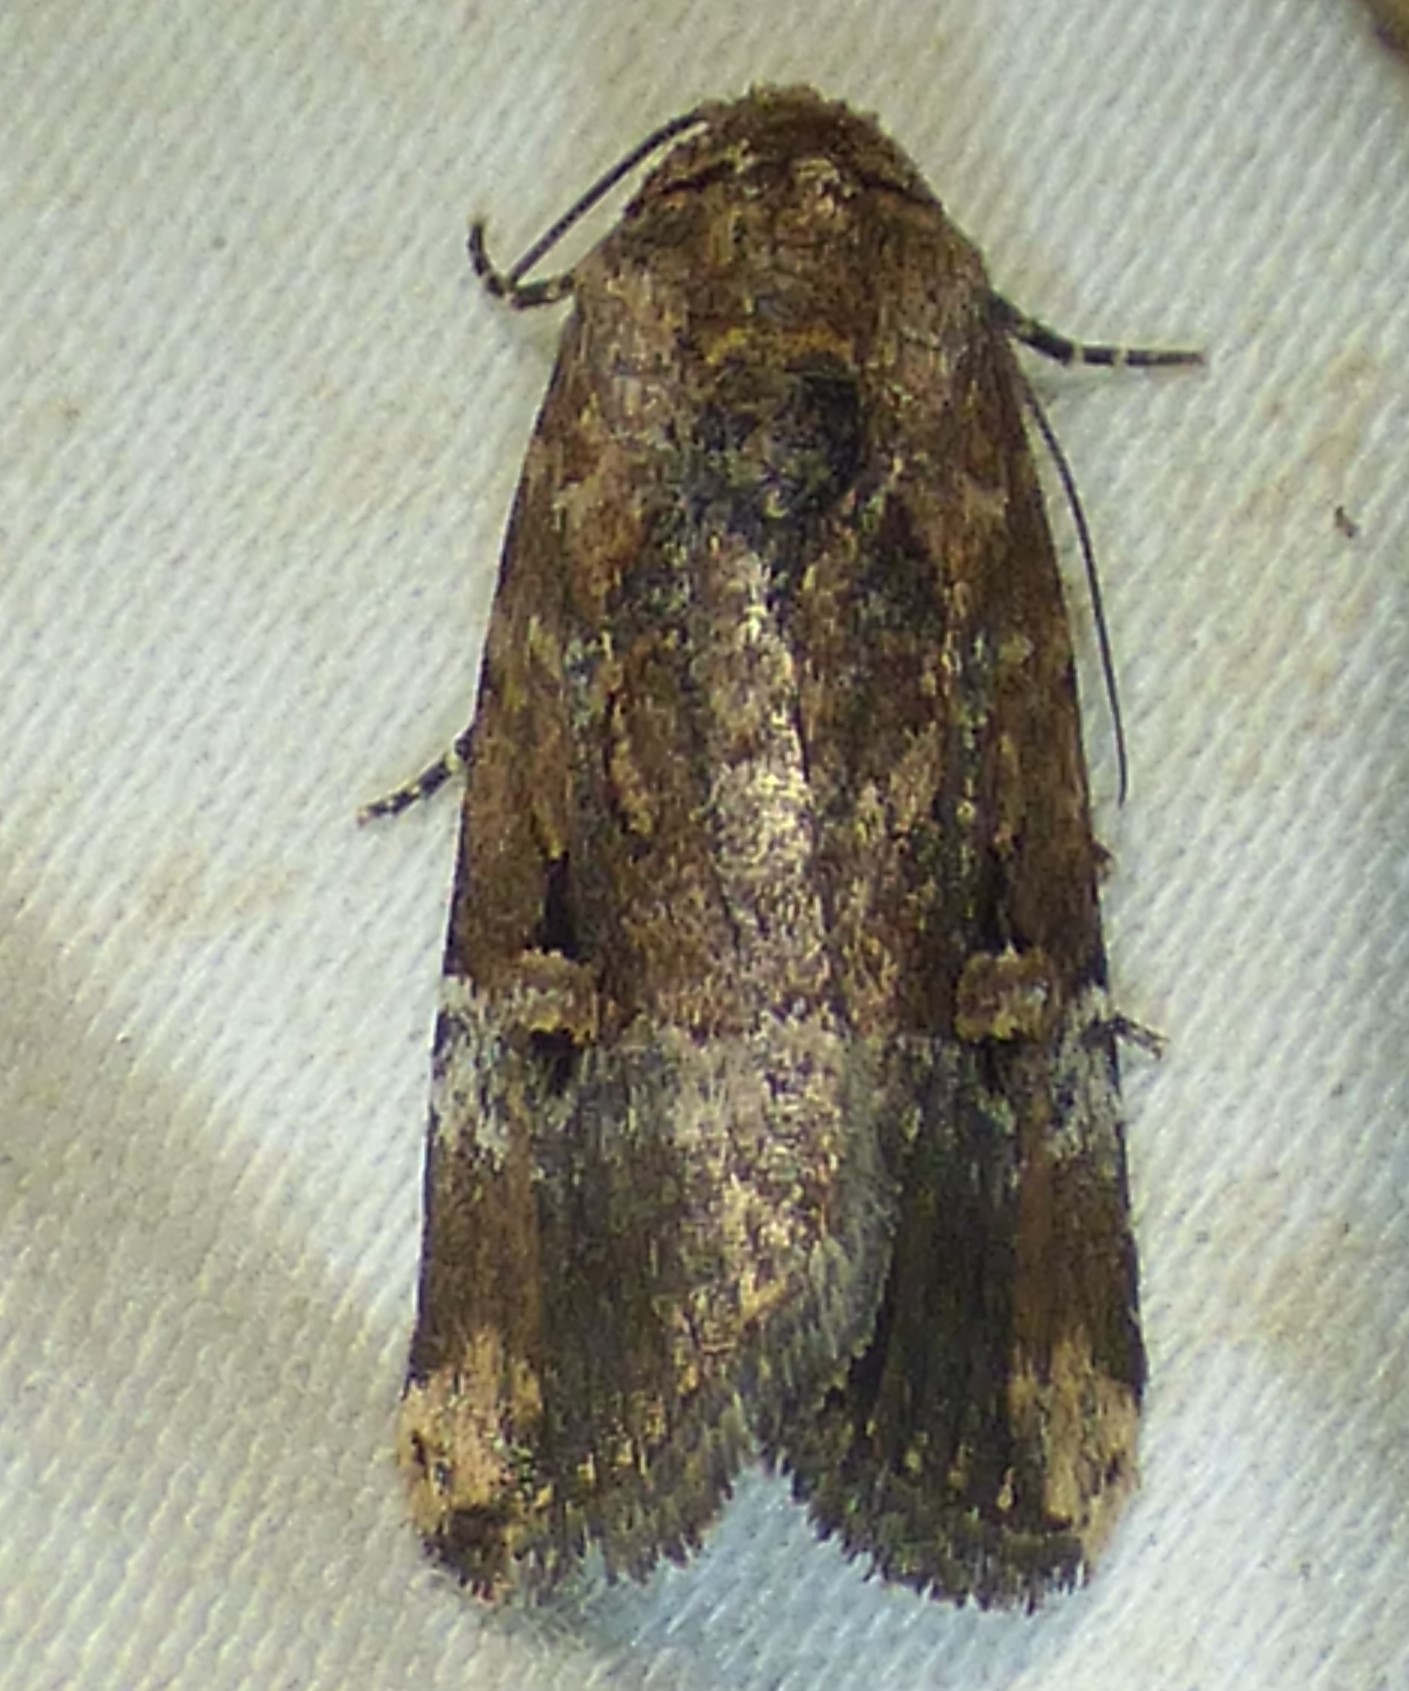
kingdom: Animalia
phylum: Arthropoda
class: Insecta
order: Lepidoptera
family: Noctuidae
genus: Elaphria
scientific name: Elaphria chalcedonia
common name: Chalcedony midget
